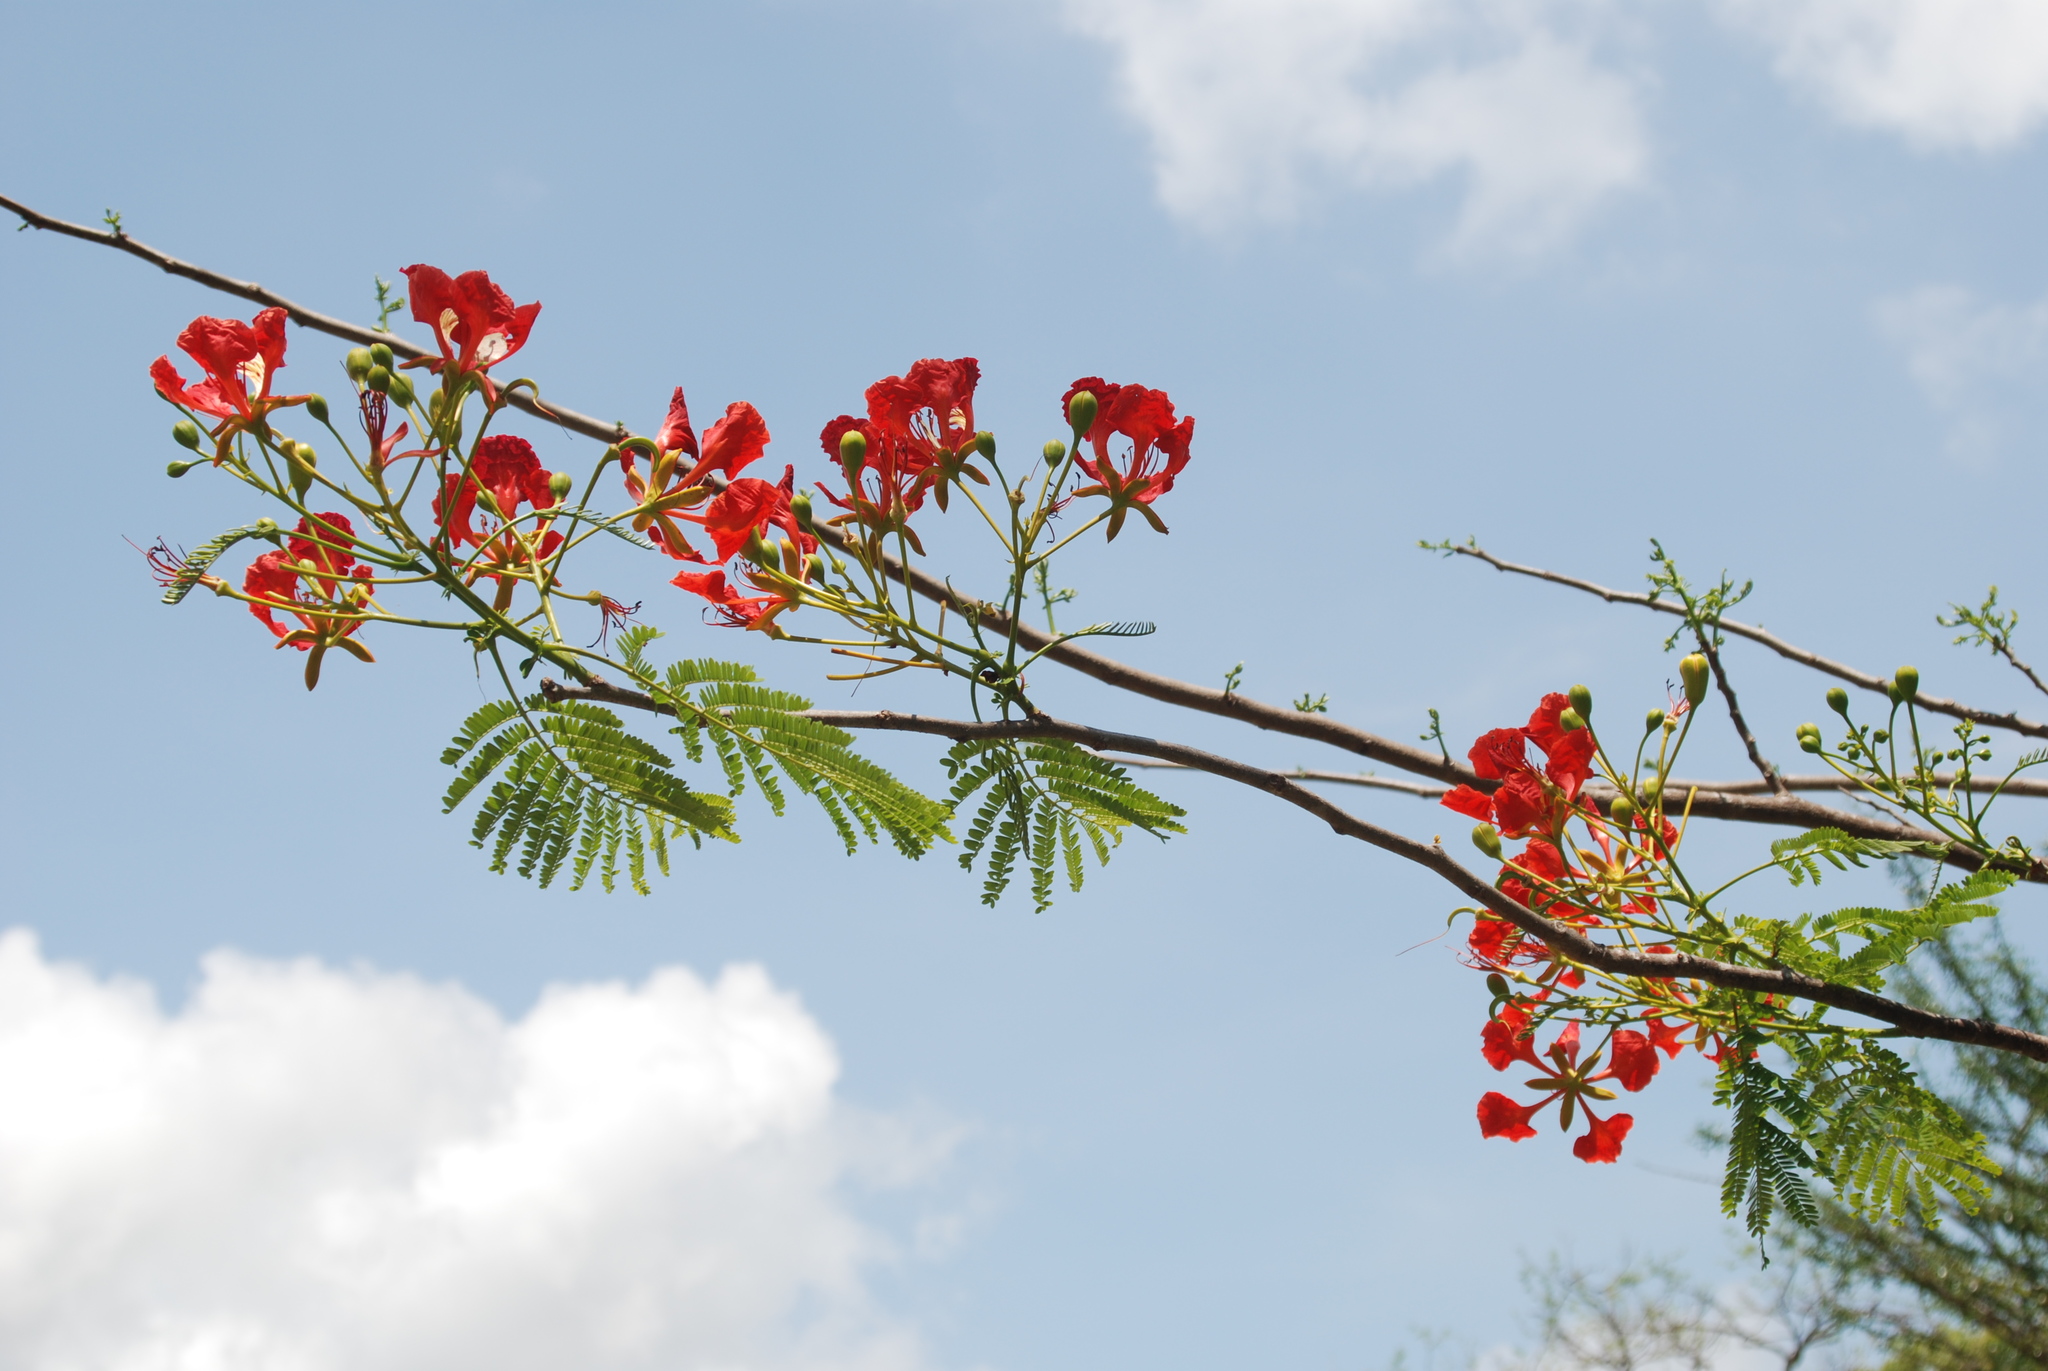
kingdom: Plantae
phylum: Tracheophyta
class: Magnoliopsida
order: Fabales
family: Fabaceae
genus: Delonix
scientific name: Delonix regia
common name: Royal poinciana
